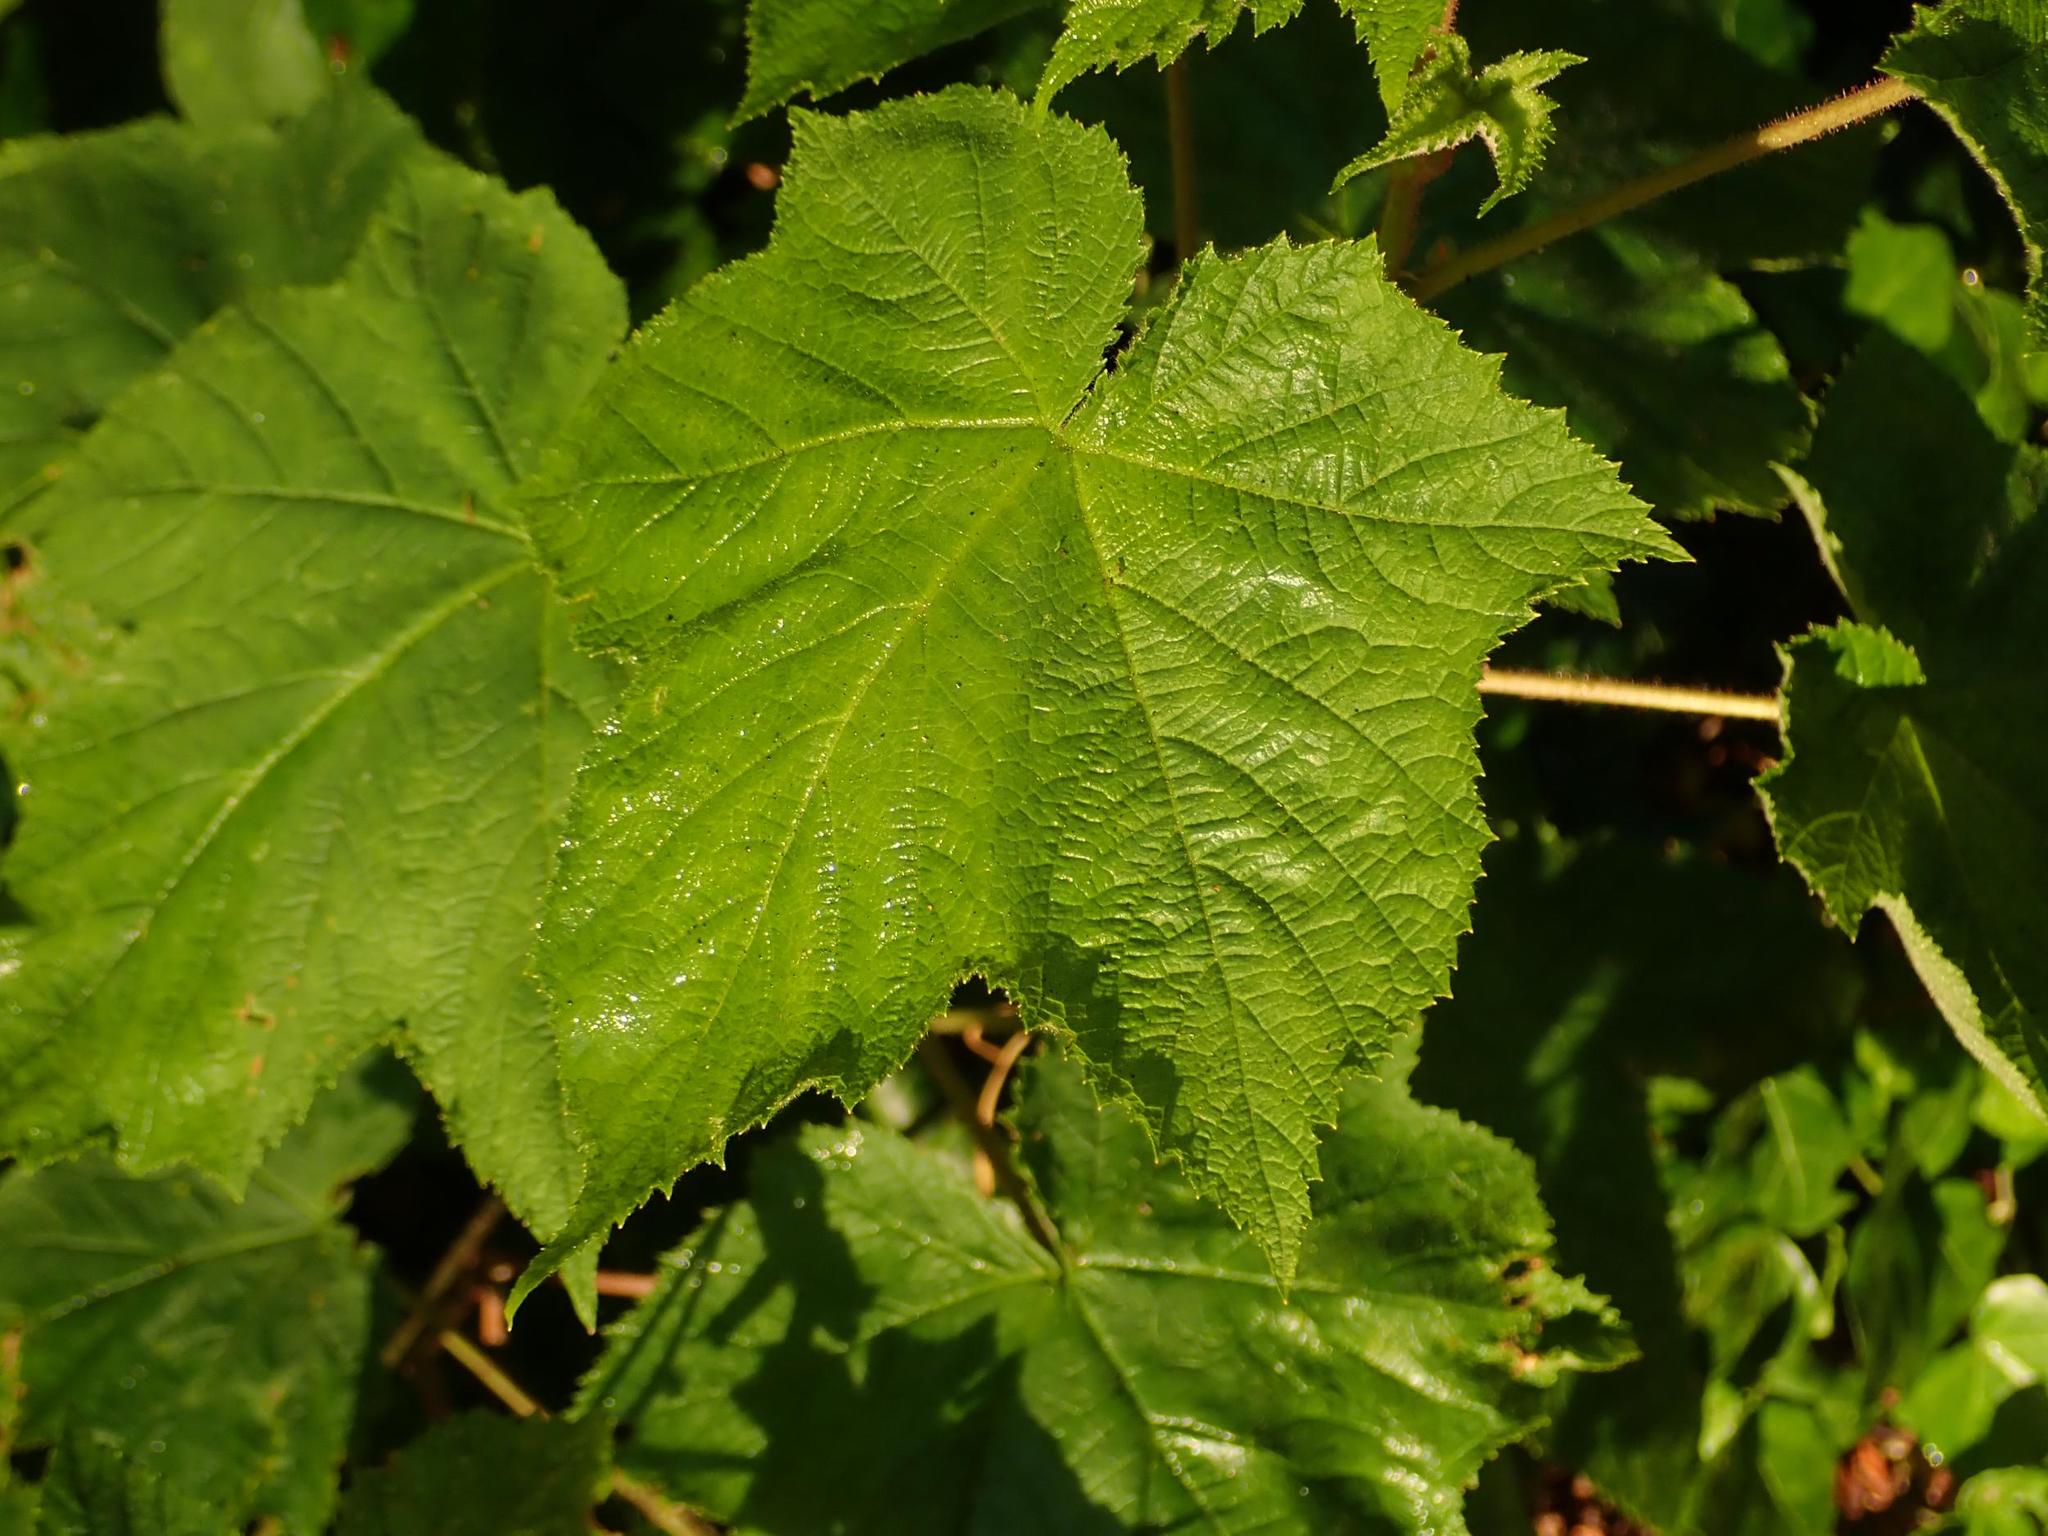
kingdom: Plantae
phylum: Tracheophyta
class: Magnoliopsida
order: Rosales
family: Rosaceae
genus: Rubus
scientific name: Rubus odoratus
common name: Purple-flowered raspberry
